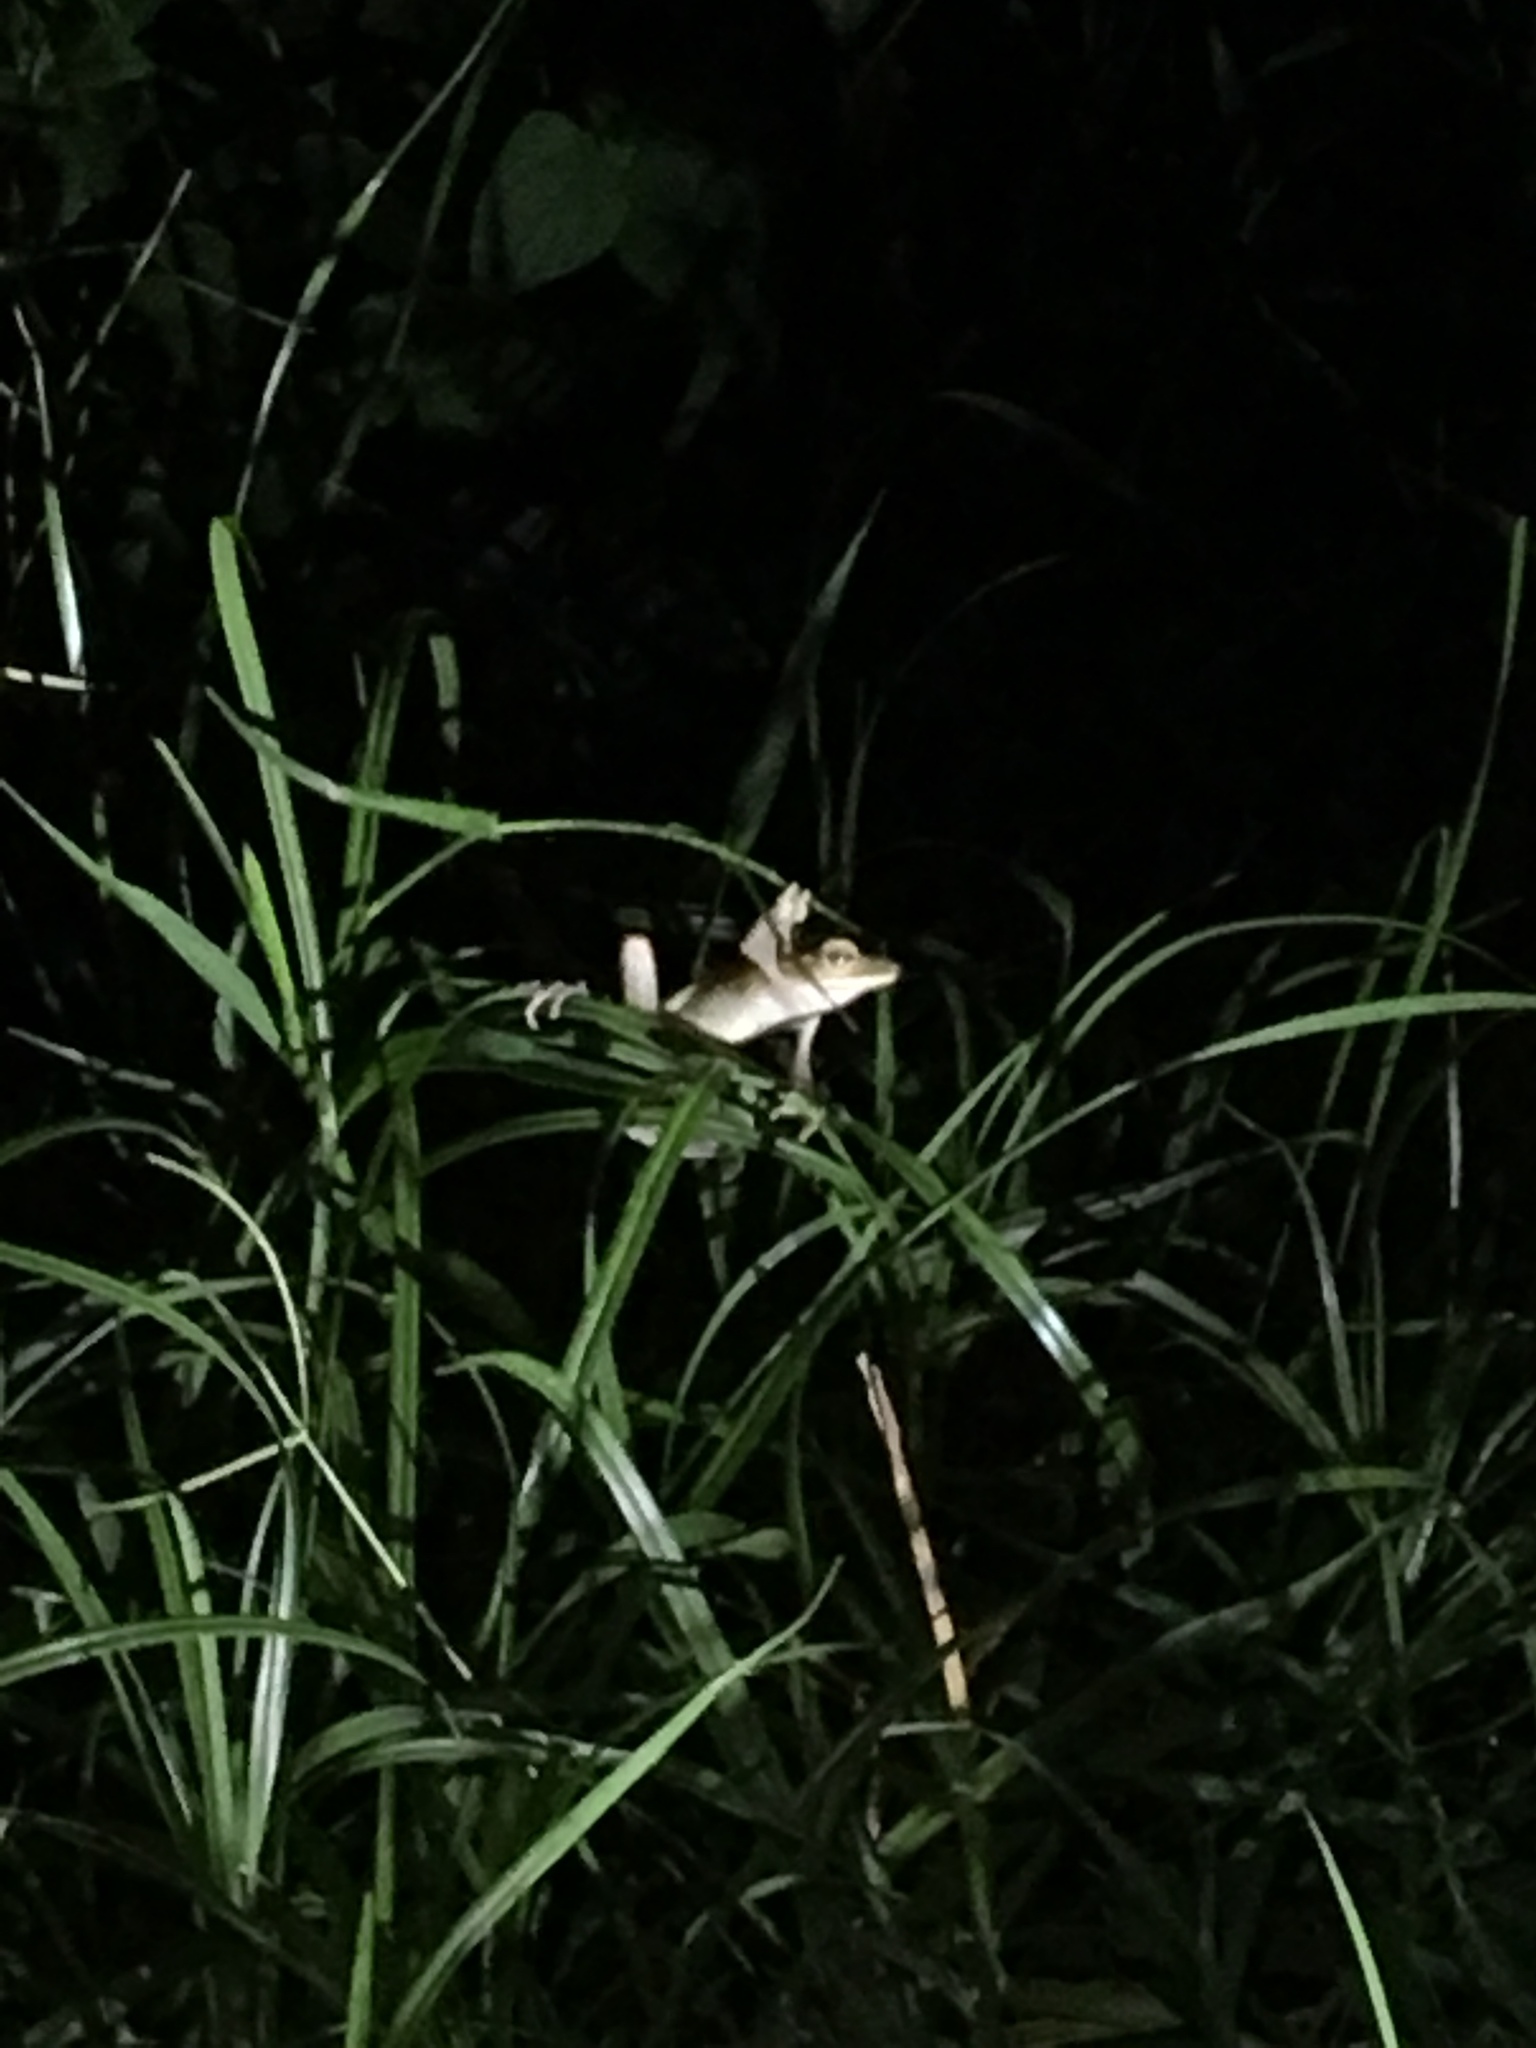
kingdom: Animalia
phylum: Chordata
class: Amphibia
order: Anura
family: Rhacophoridae
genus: Polypedates
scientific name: Polypedates megacephalus
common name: Hong kong whipping frog
